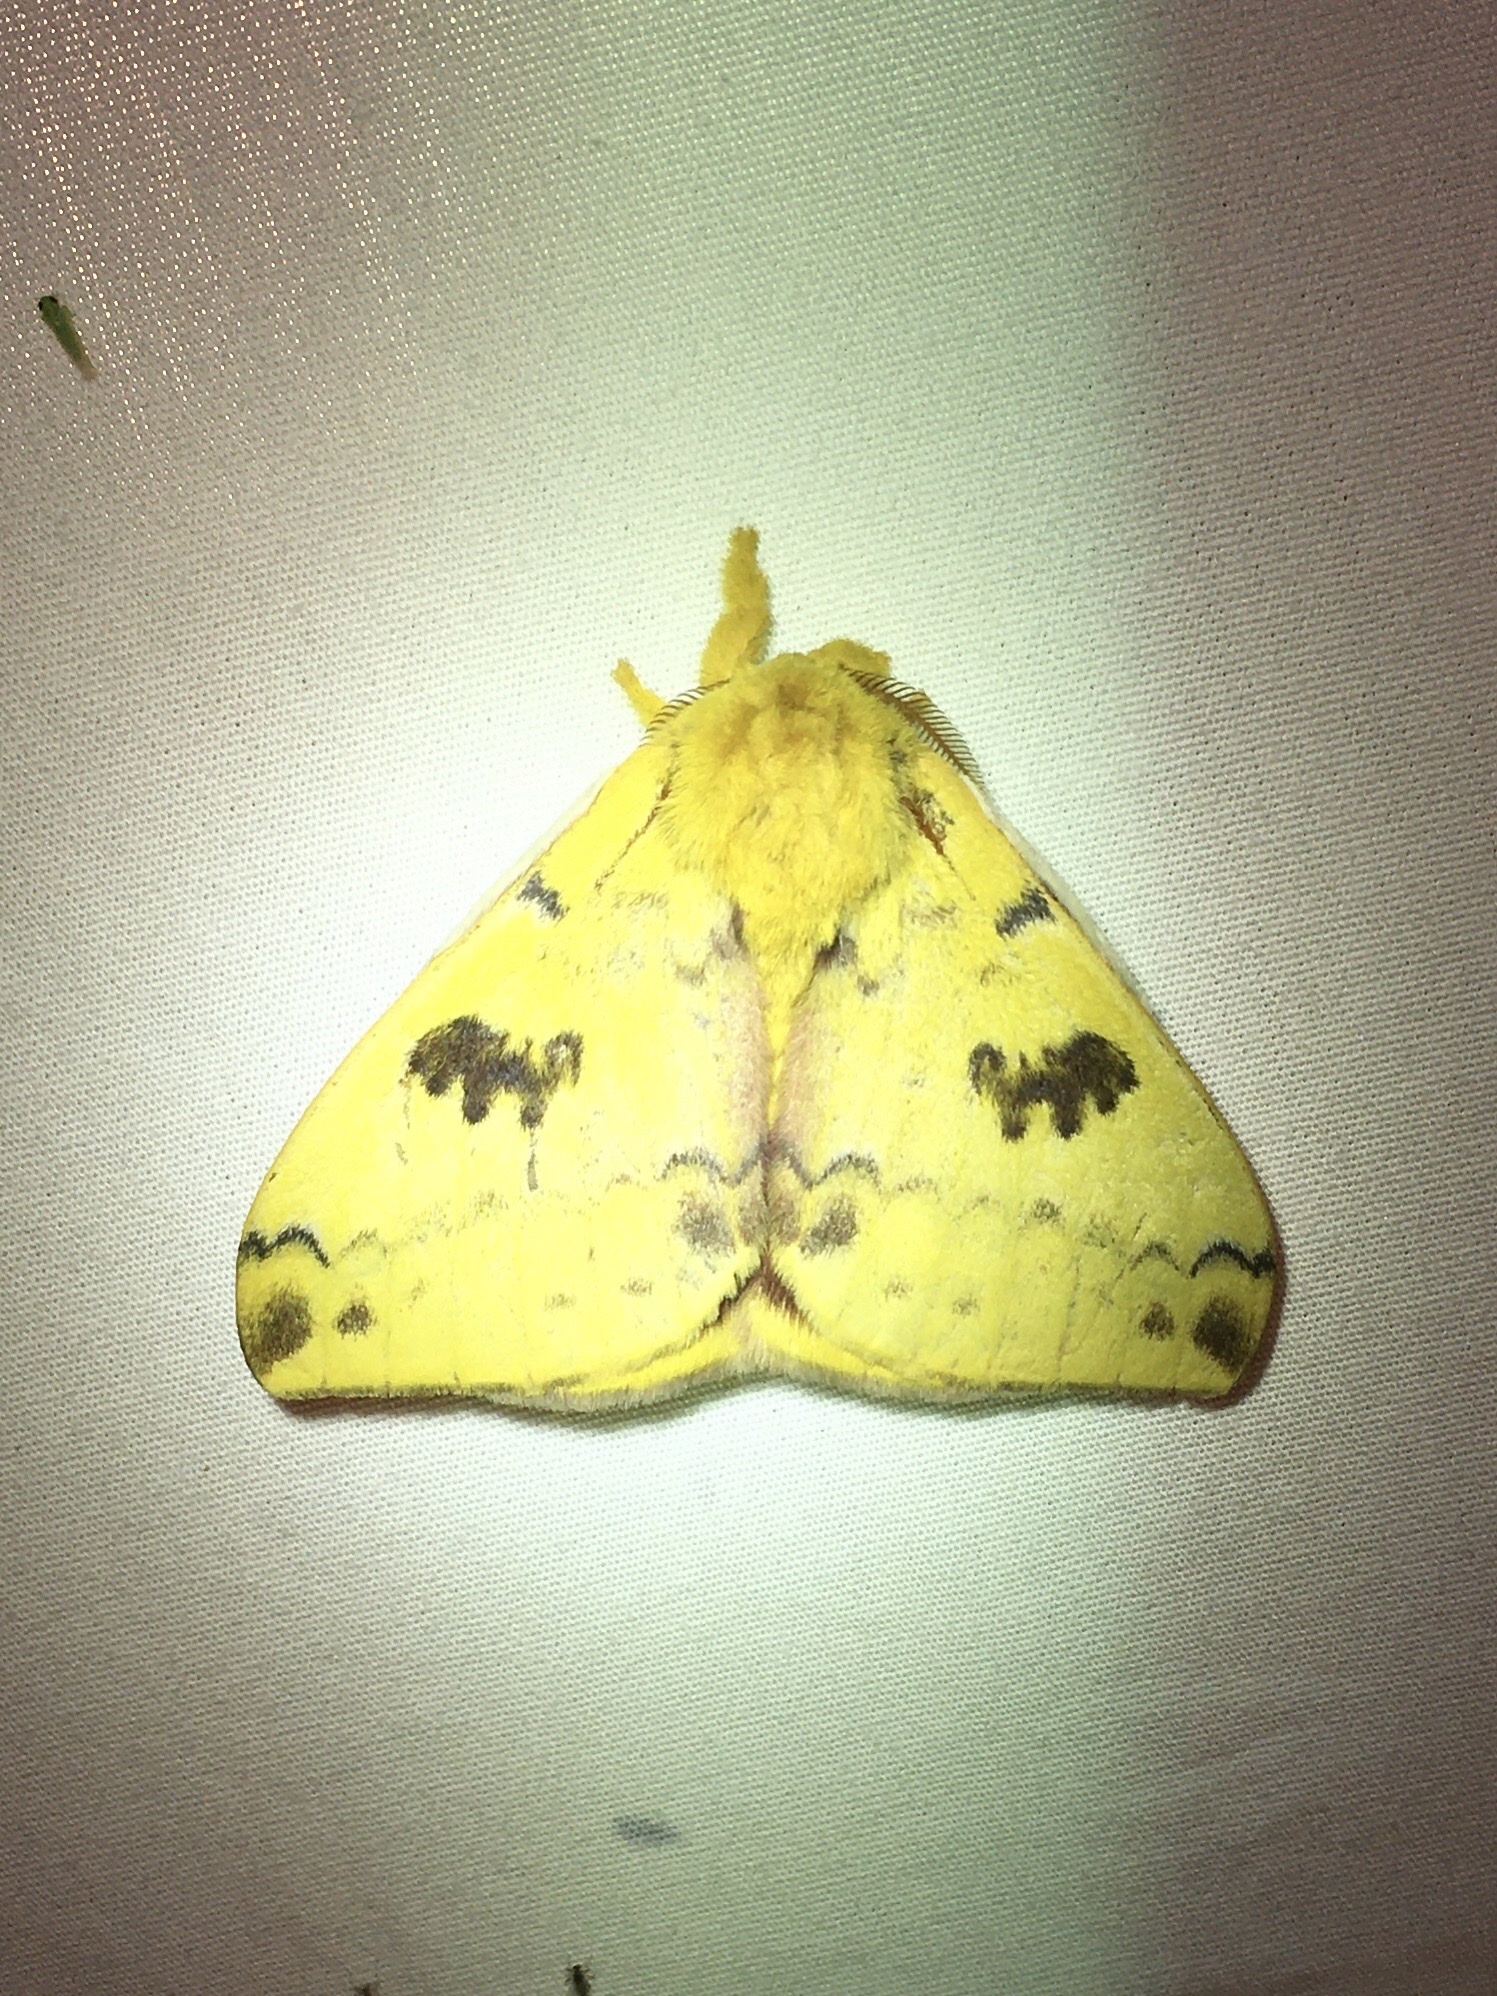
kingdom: Animalia
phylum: Arthropoda
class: Insecta
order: Lepidoptera
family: Saturniidae
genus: Automeris
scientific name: Automeris io
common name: Io moth
